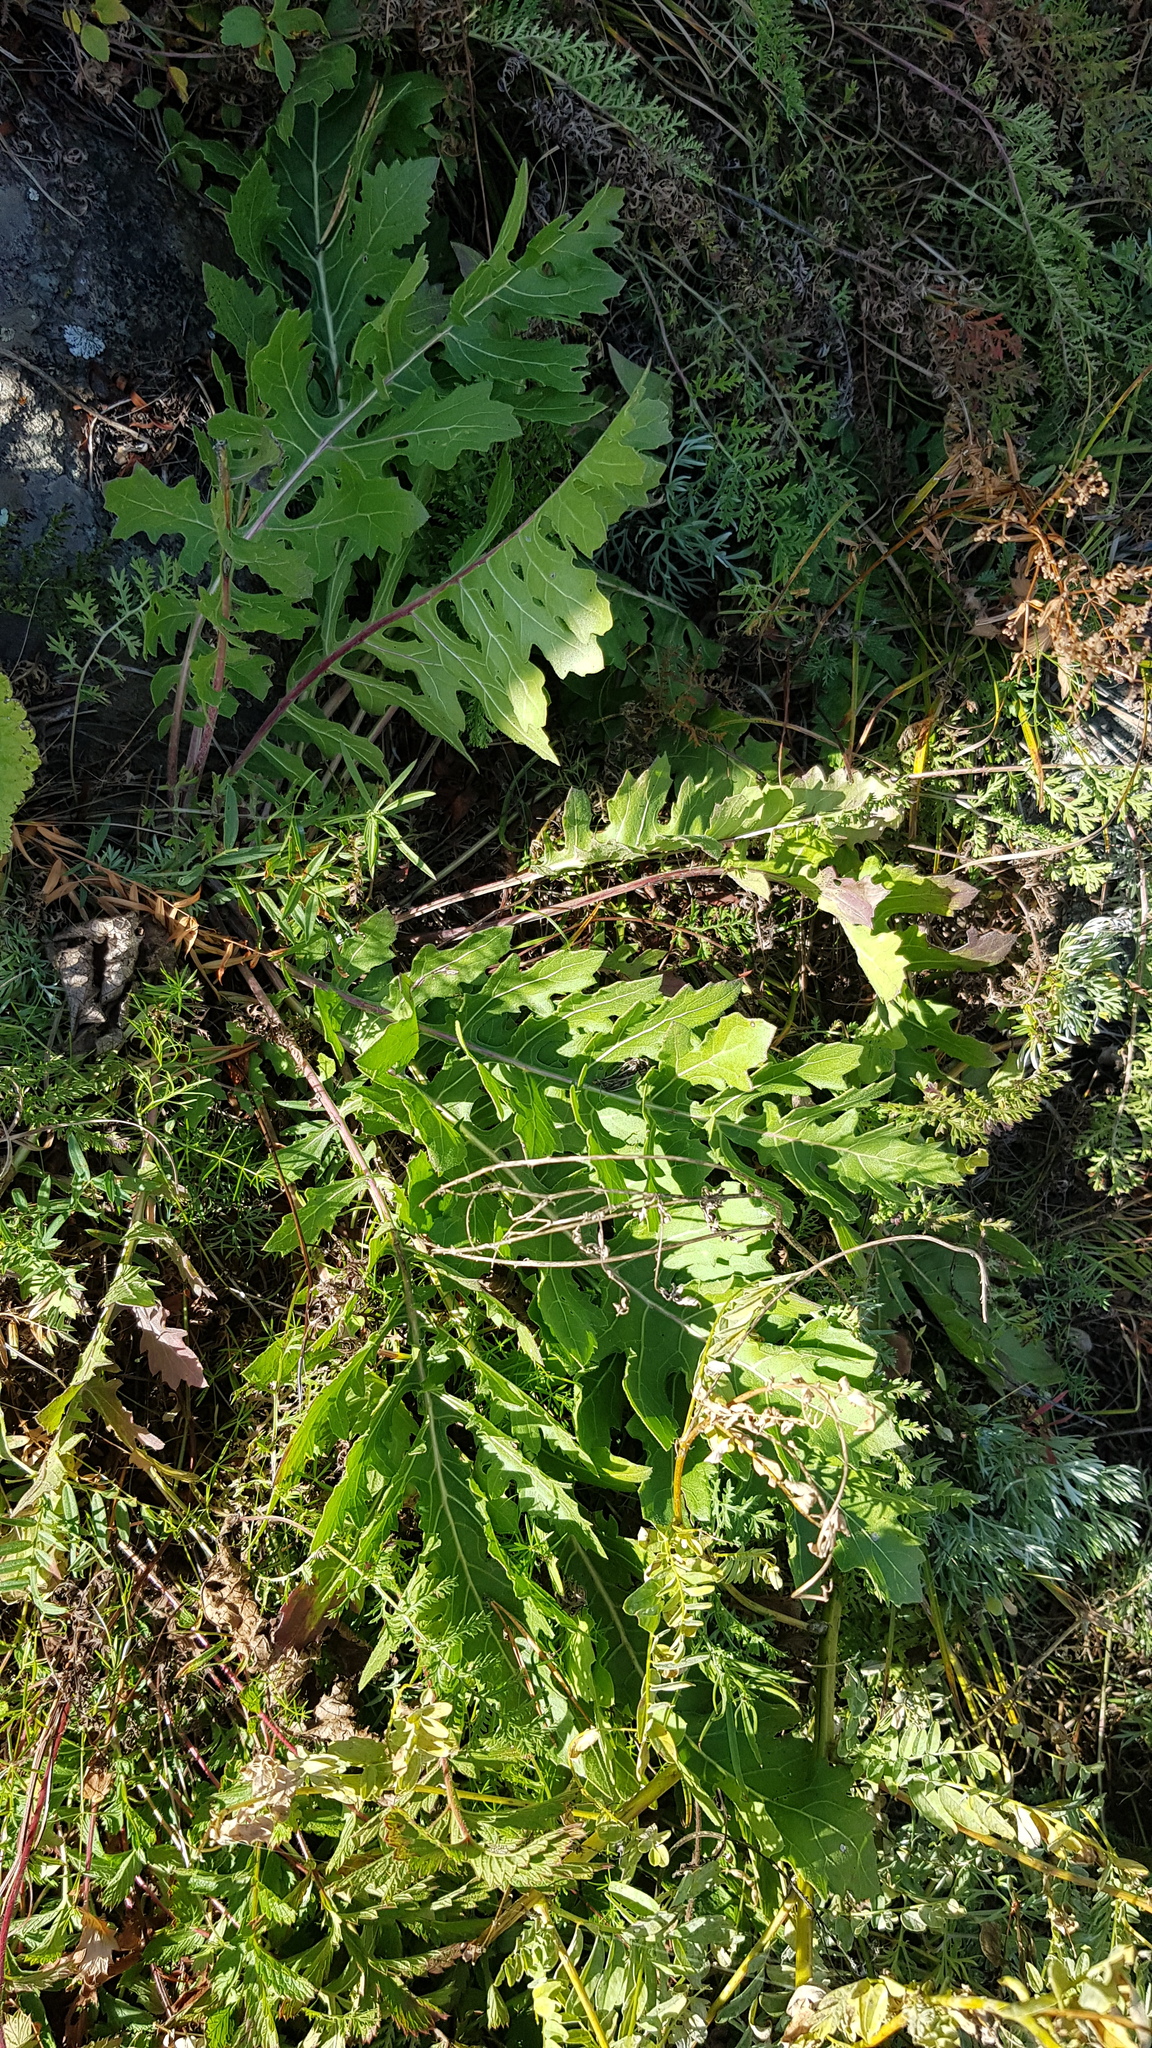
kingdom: Plantae
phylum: Tracheophyta
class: Magnoliopsida
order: Asterales
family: Asteraceae
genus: Leuzea
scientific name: Leuzea uniflora
